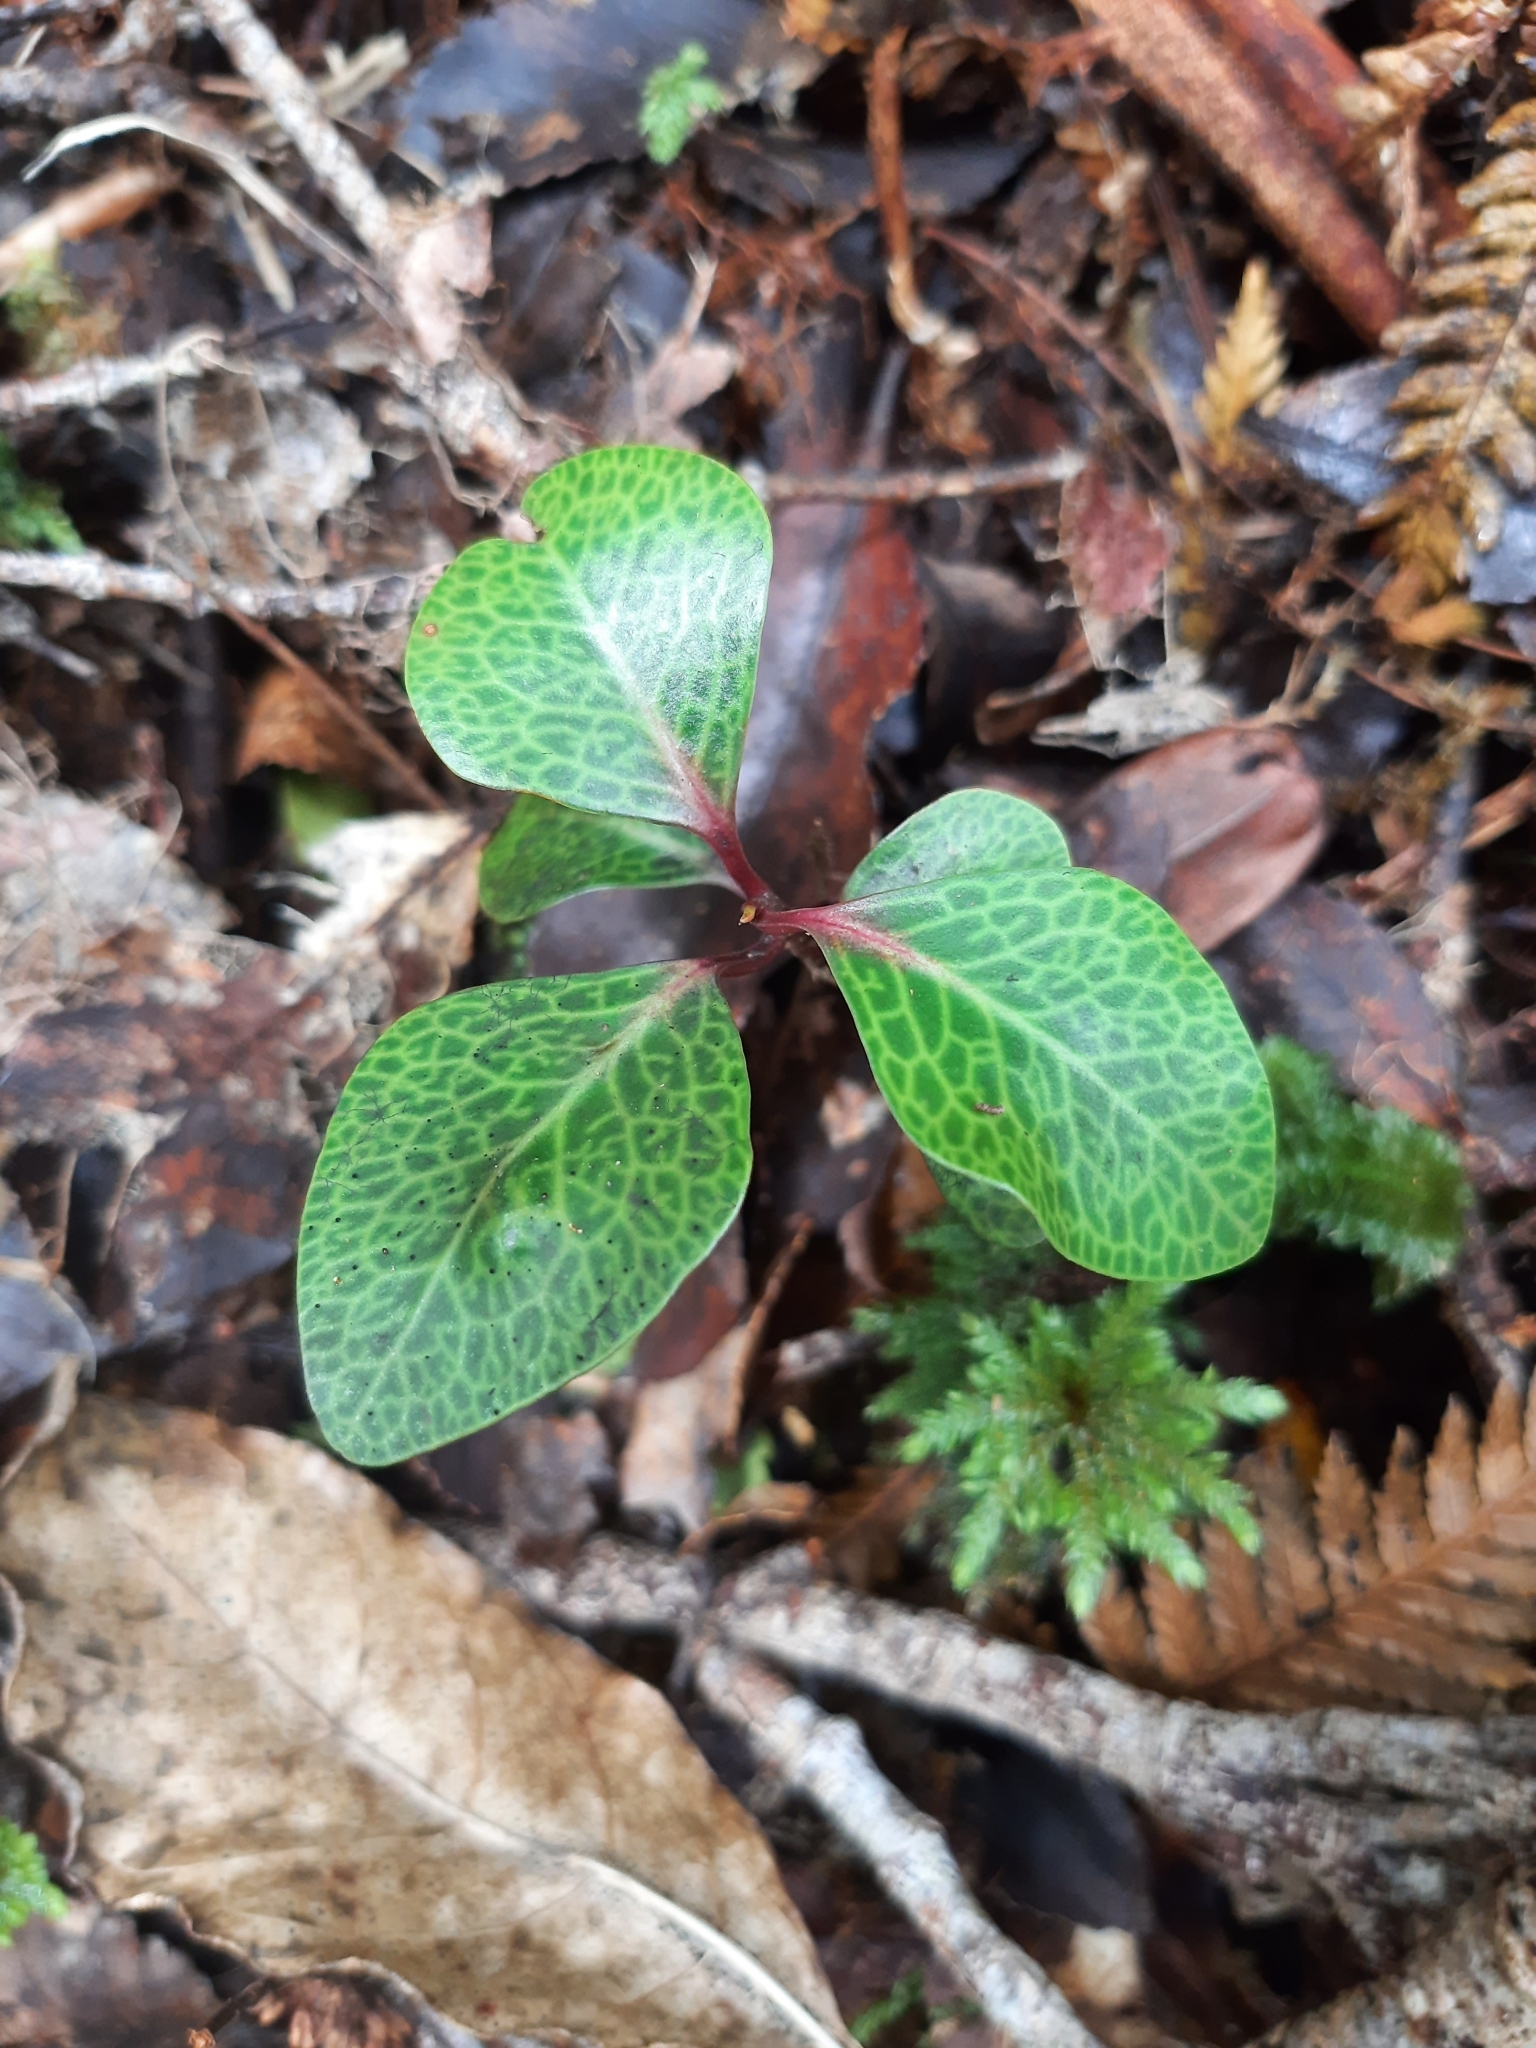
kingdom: Plantae
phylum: Tracheophyta
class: Magnoliopsida
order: Canellales
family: Winteraceae
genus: Pseudowintera
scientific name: Pseudowintera axillaris
